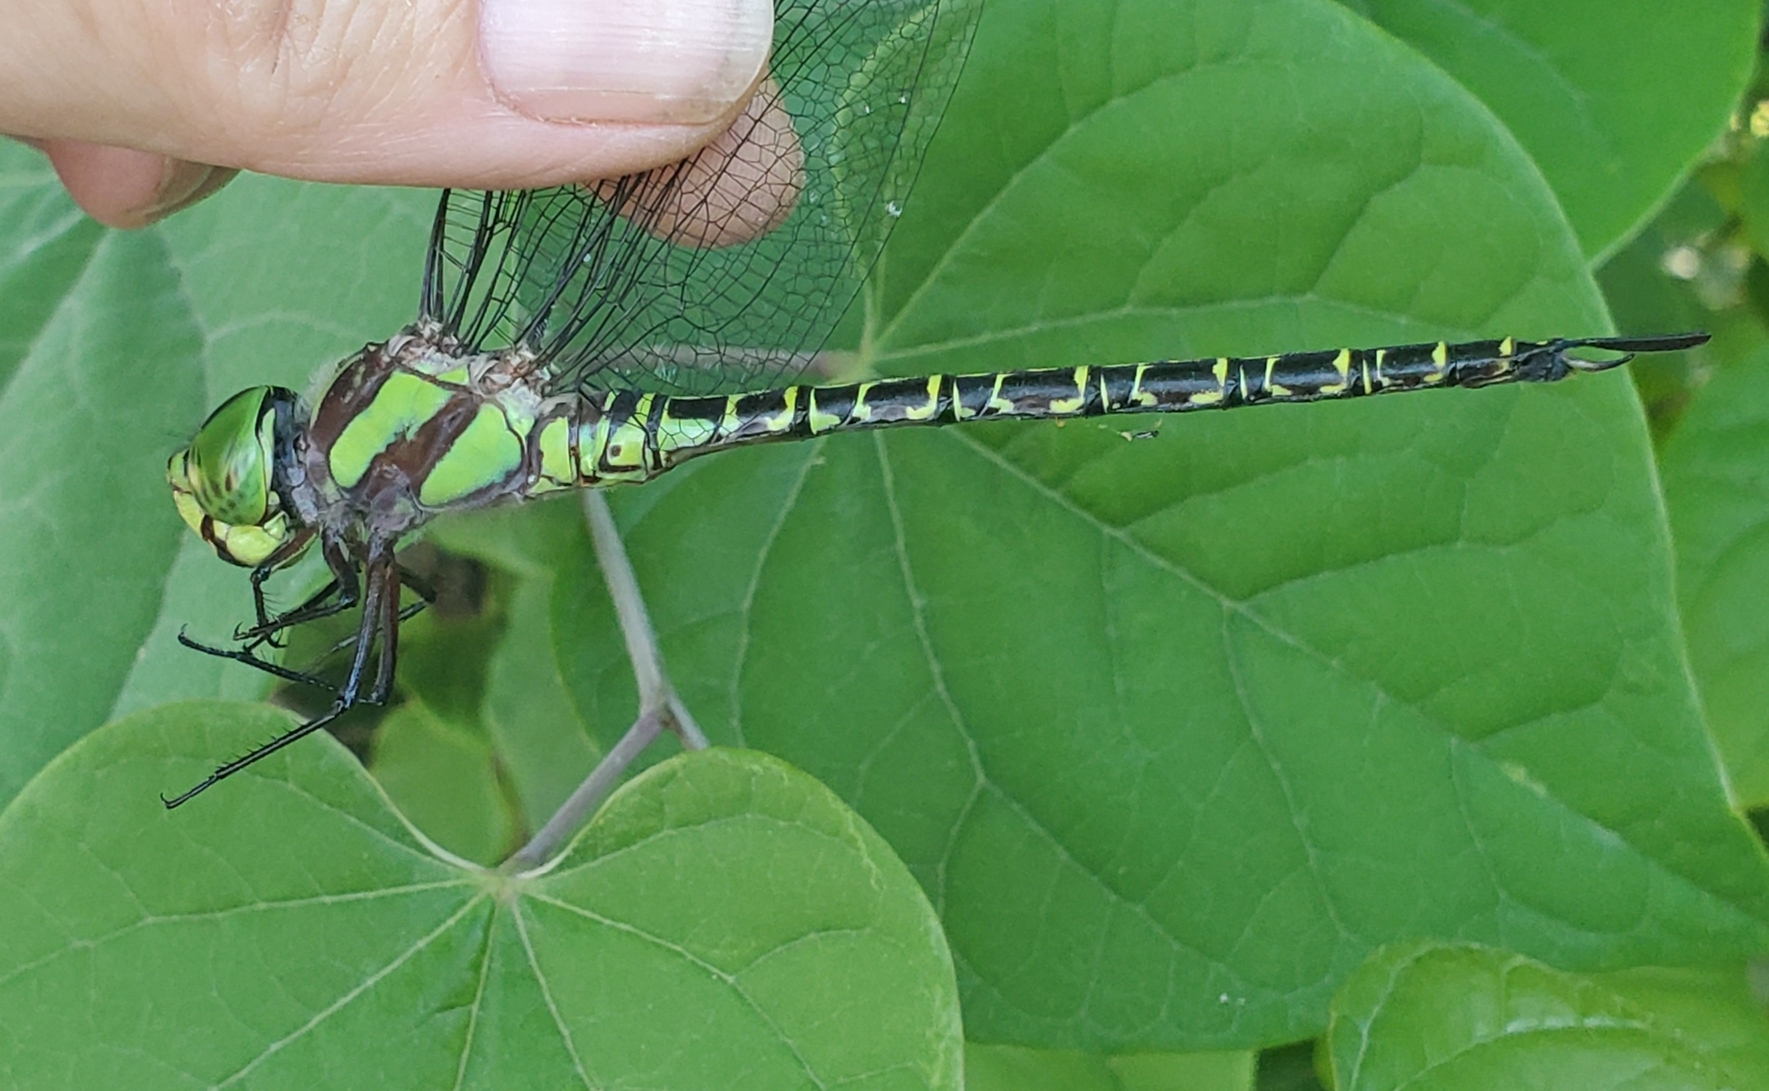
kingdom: Animalia
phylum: Arthropoda
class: Insecta
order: Odonata
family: Aeshnidae
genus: Coryphaeschna
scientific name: Coryphaeschna ingens
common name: Regal darner
